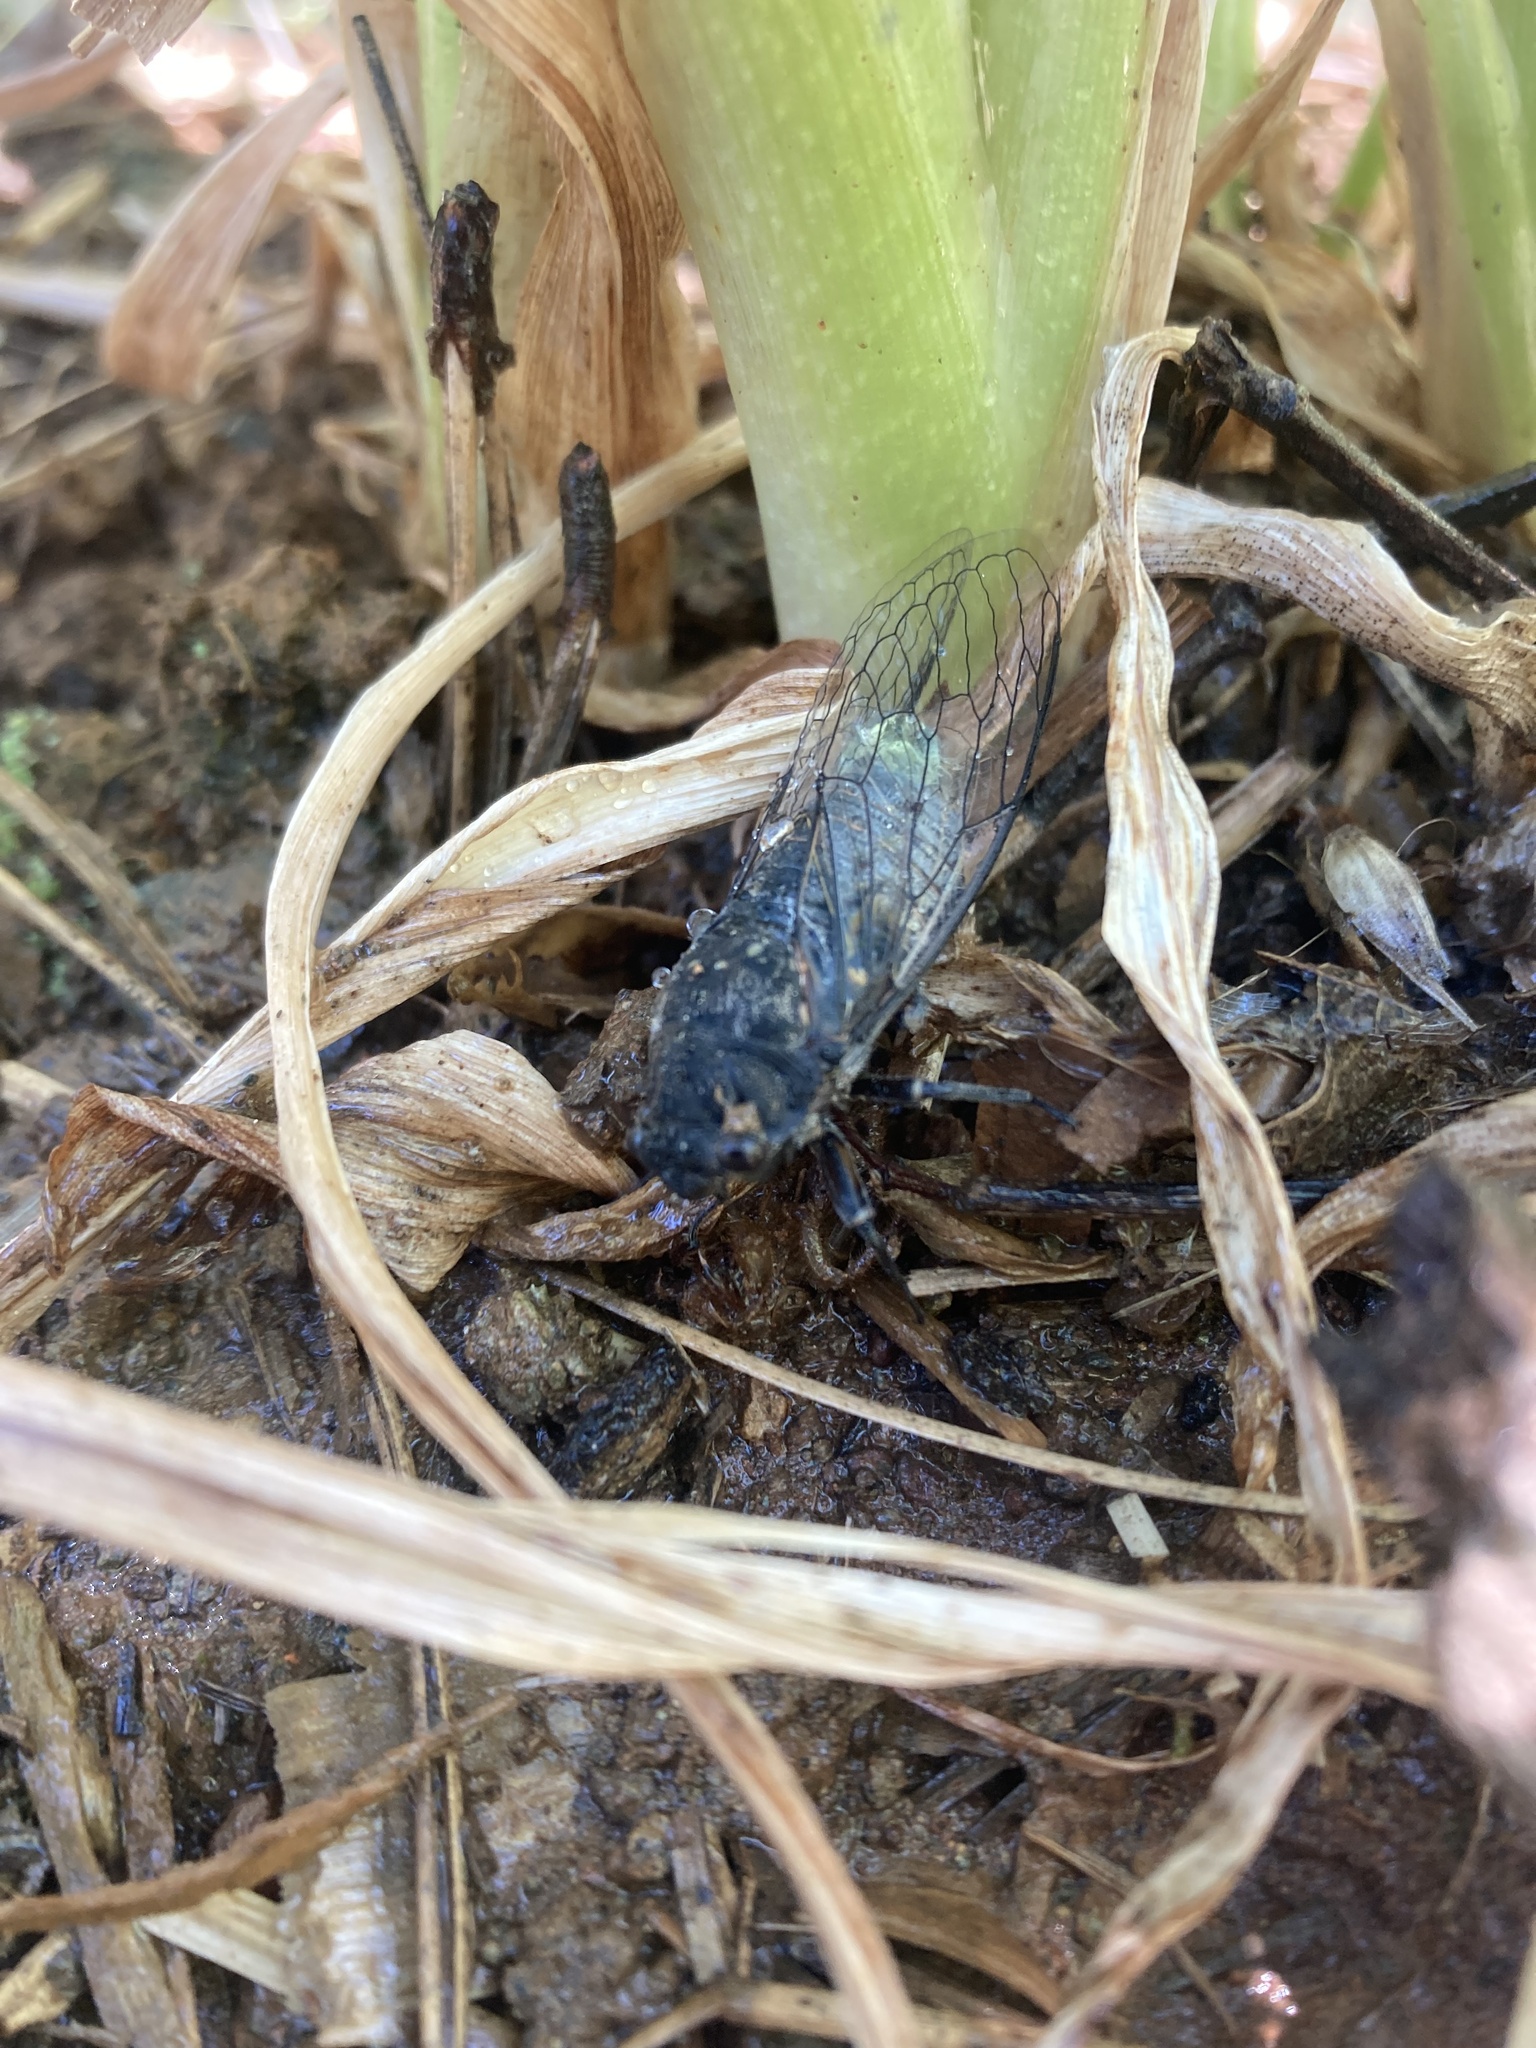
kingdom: Animalia
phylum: Arthropoda
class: Insecta
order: Hemiptera
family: Cicadidae
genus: Okanagana
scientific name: Okanagana tristis
